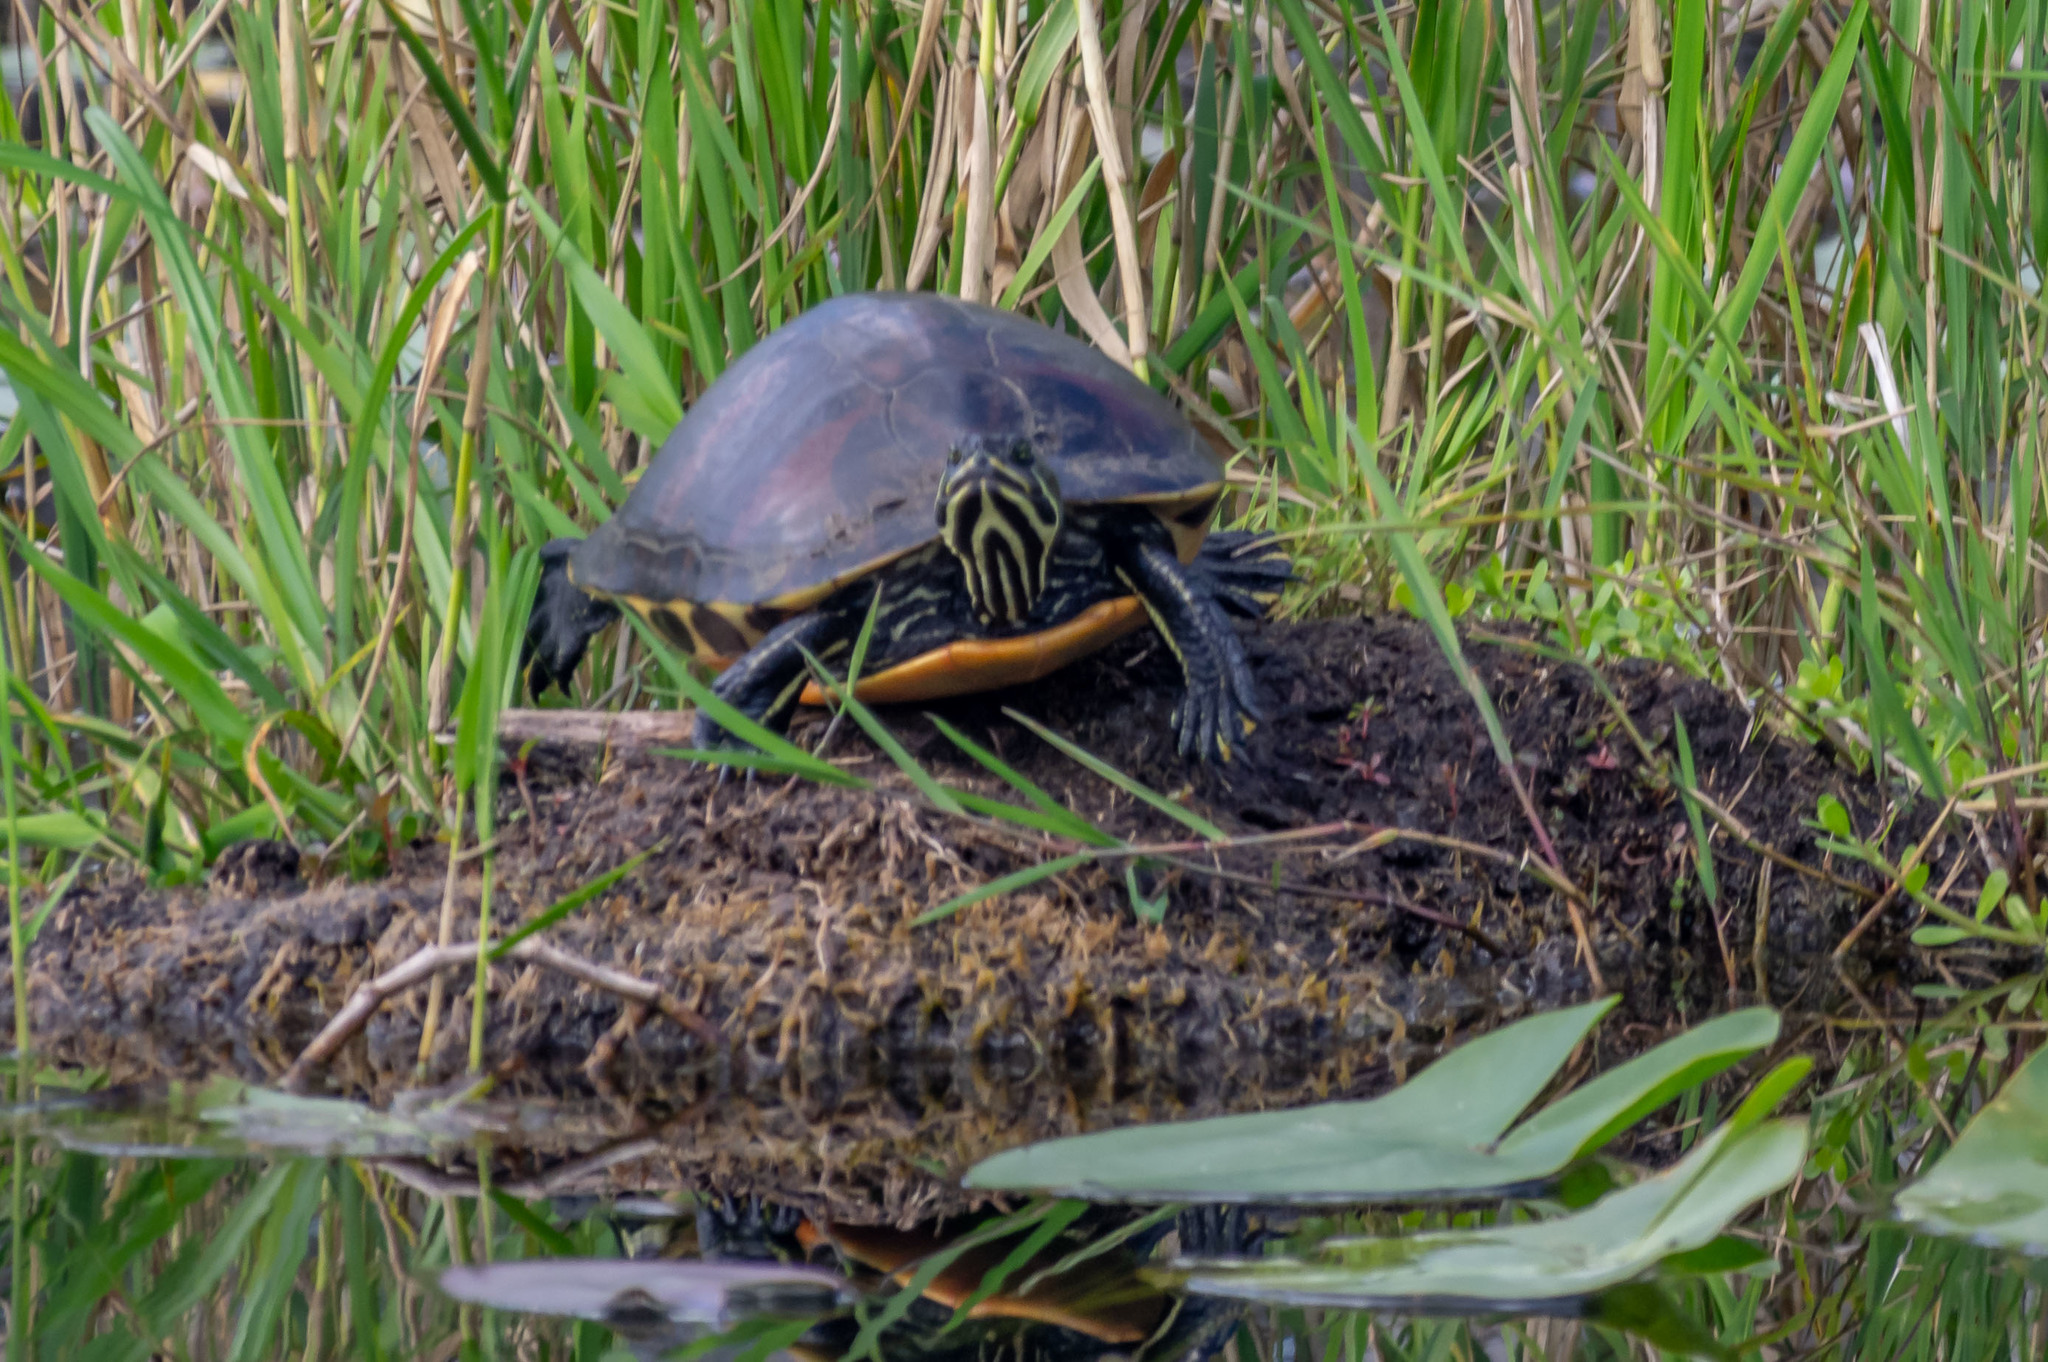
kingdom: Animalia
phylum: Chordata
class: Testudines
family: Emydidae
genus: Pseudemys
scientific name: Pseudemys nelsoni
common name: Florida red-bellied turtle
